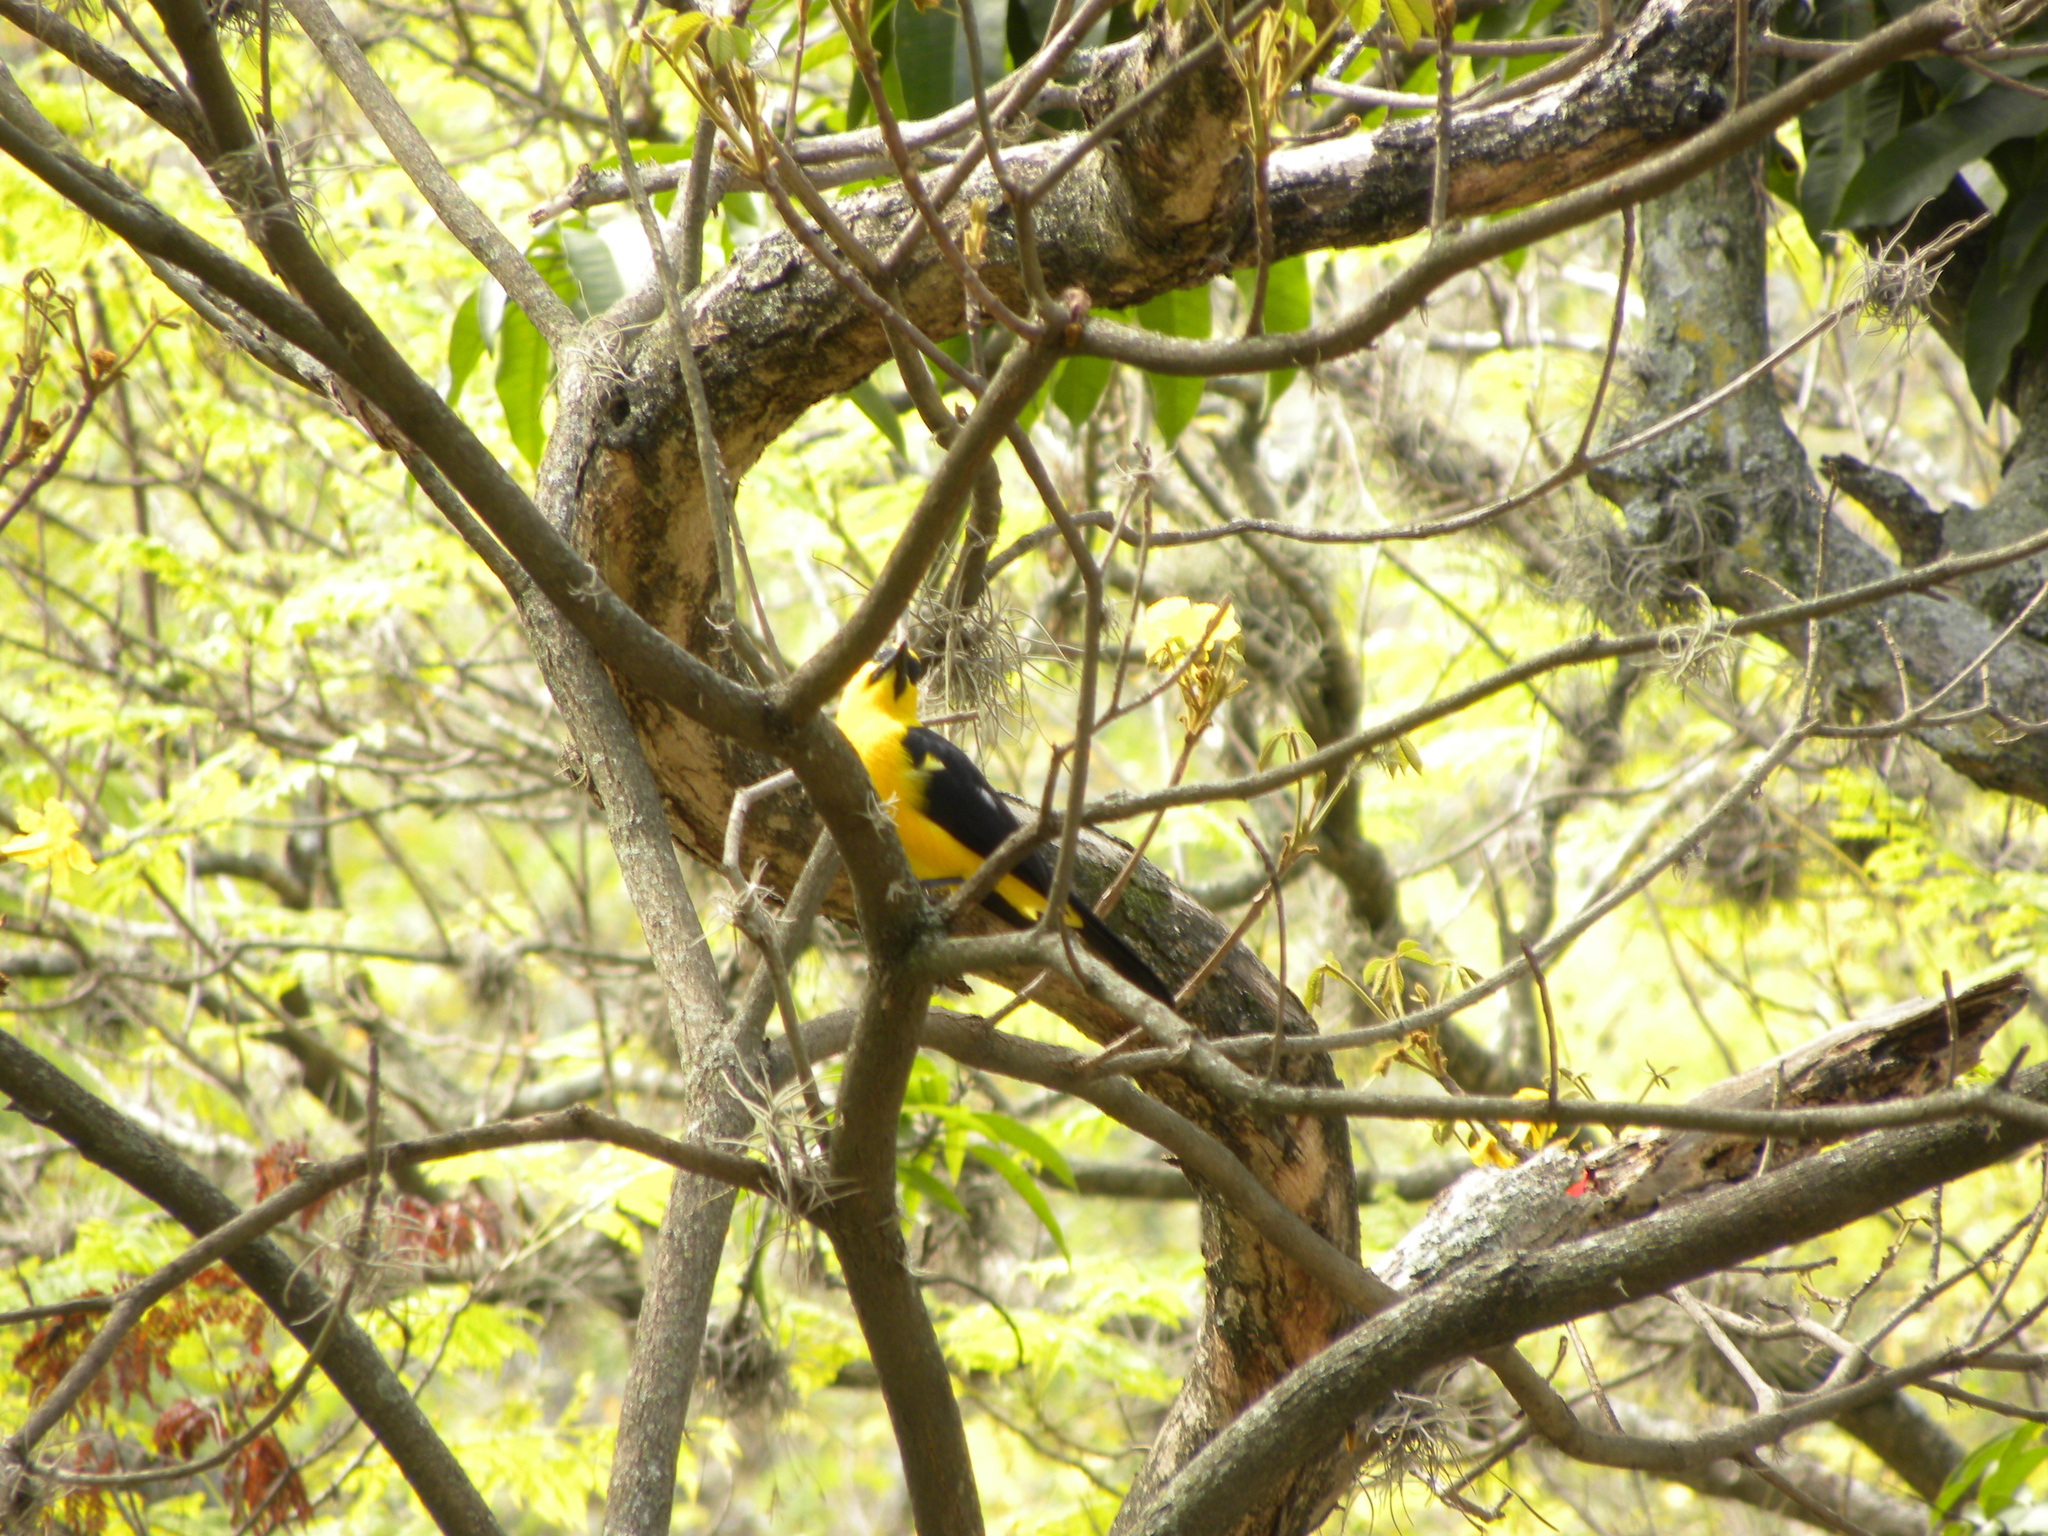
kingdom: Animalia
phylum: Chordata
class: Aves
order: Passeriformes
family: Icteridae
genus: Gymnomystax
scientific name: Gymnomystax mexicanus
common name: Oriole blackbird
